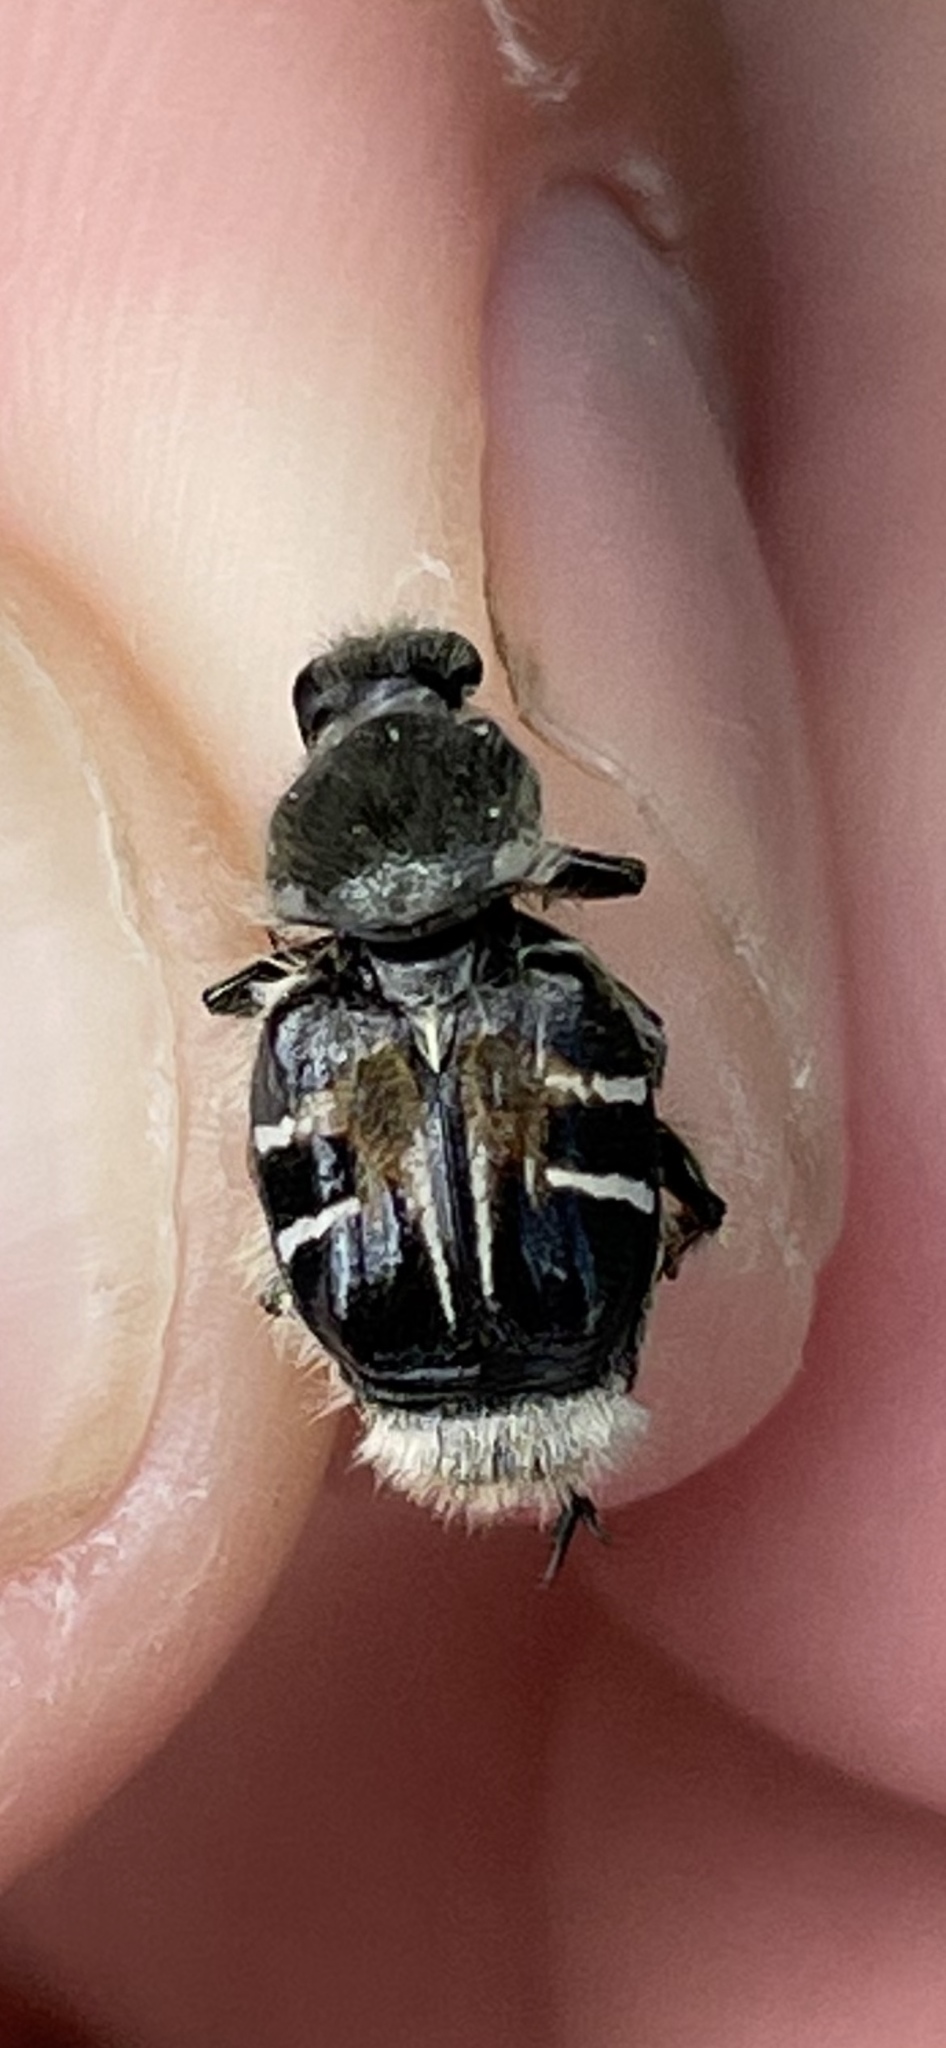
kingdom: Animalia
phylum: Arthropoda
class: Insecta
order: Coleoptera
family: Scarabaeidae
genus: Trichiotinus
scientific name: Trichiotinus assimilis
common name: Bee-mimic beetle
